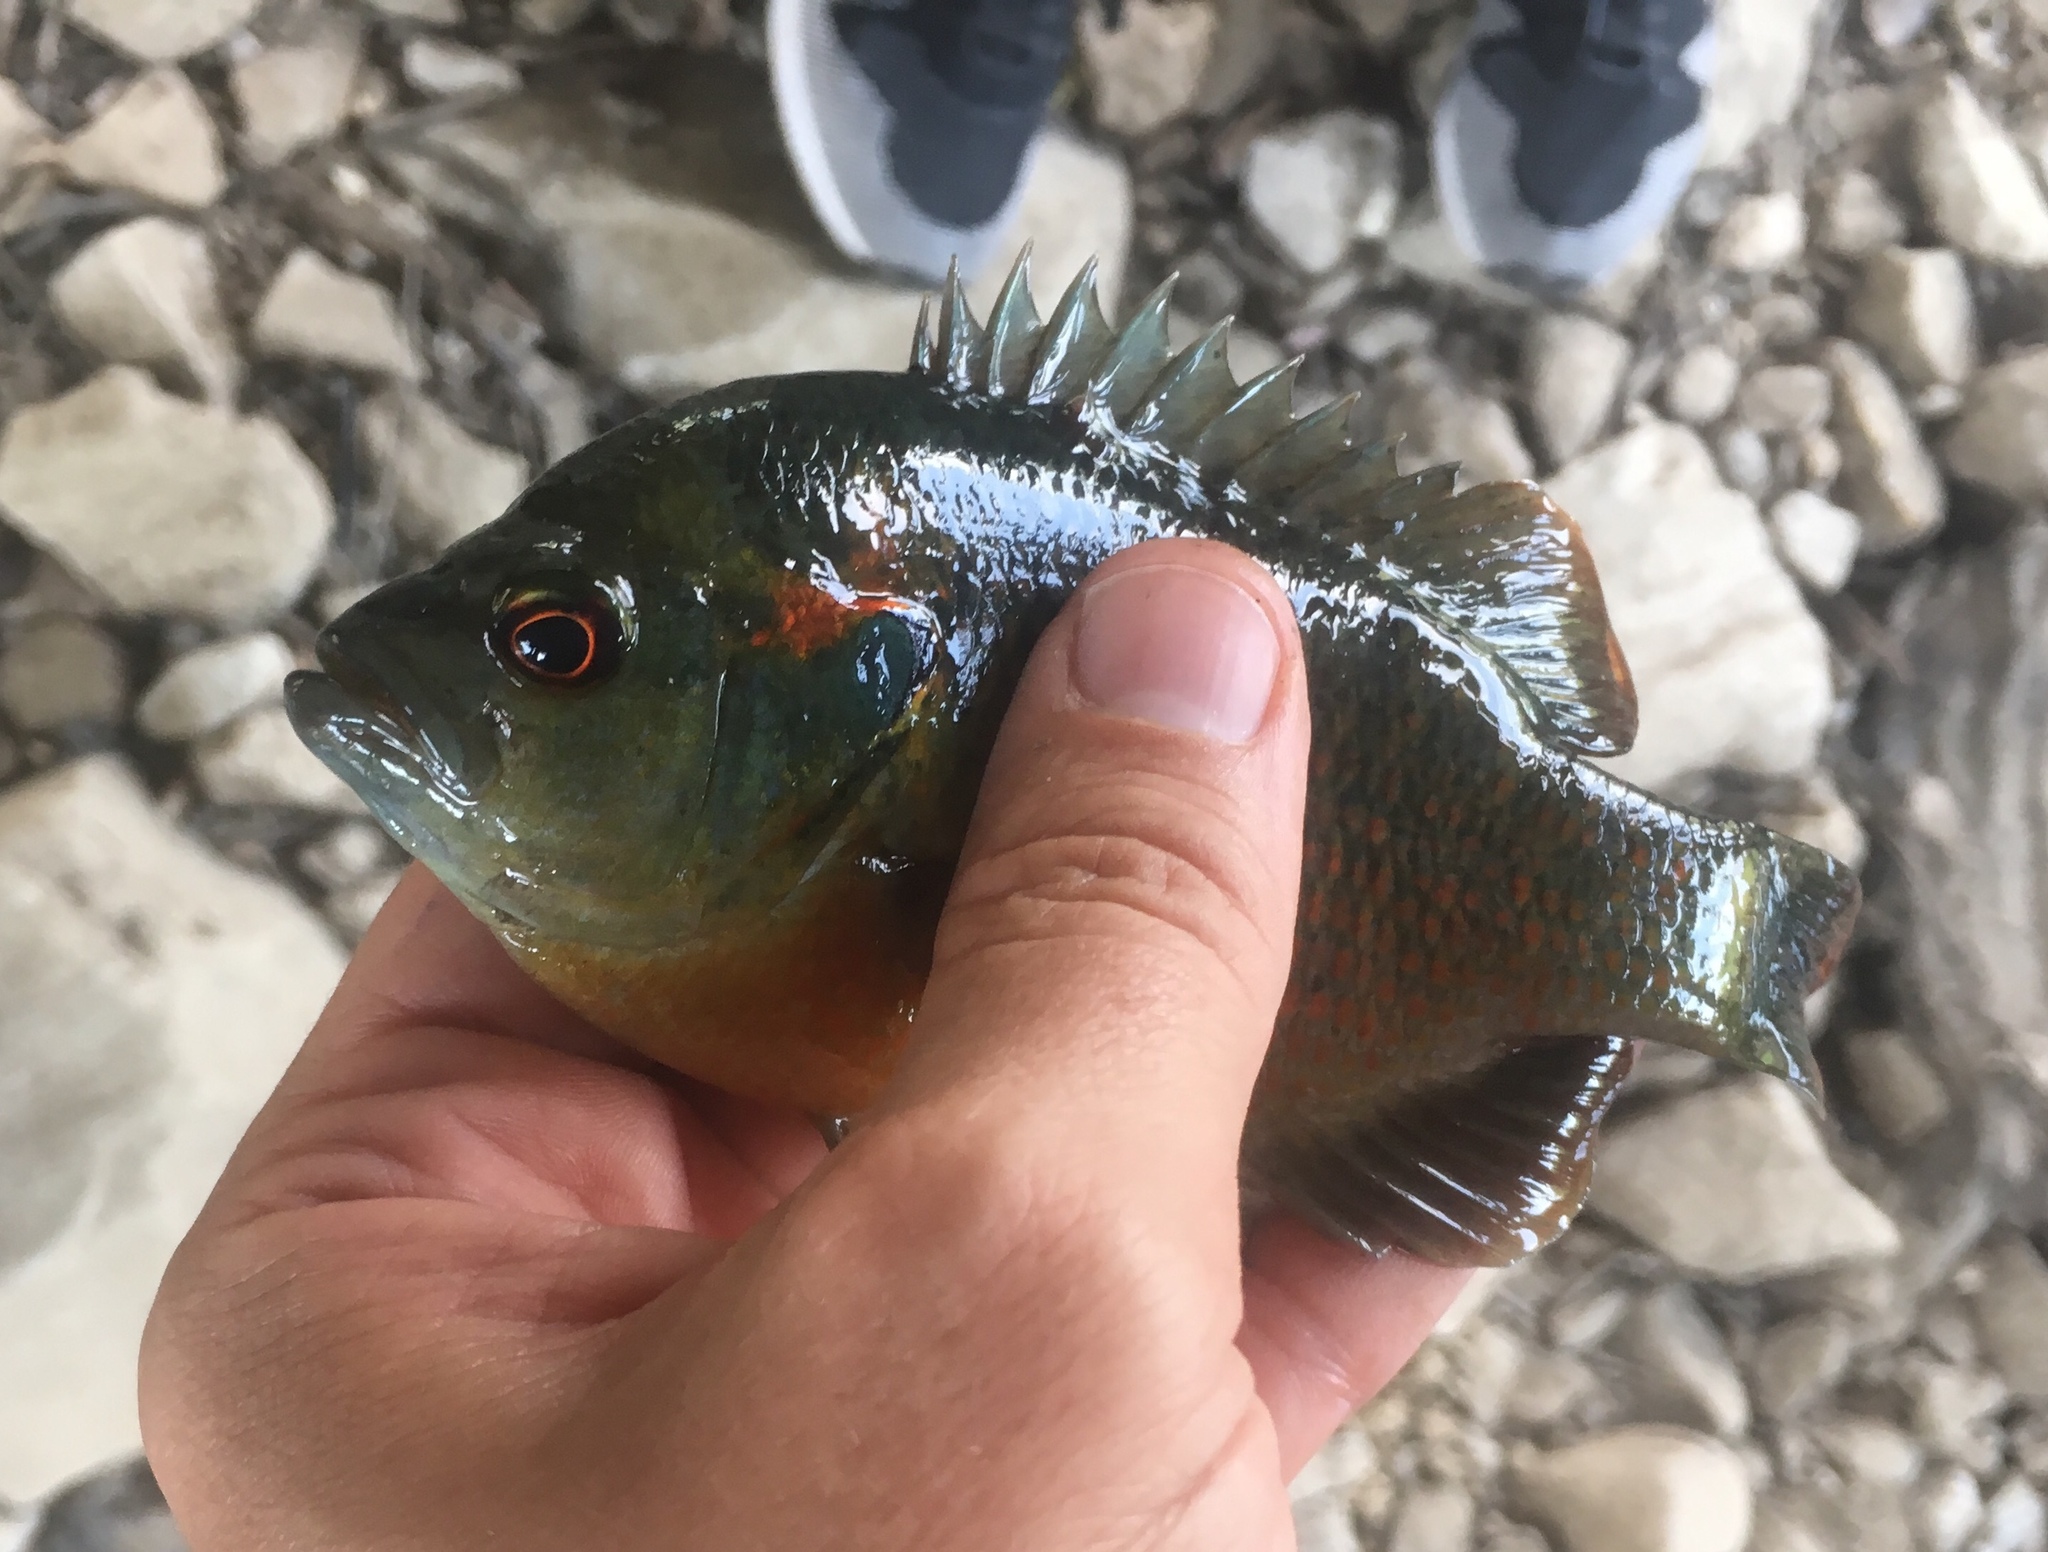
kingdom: Animalia
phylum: Chordata
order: Perciformes
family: Centrarchidae
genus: Lepomis
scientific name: Lepomis miniatus
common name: Redspotted sunfish
